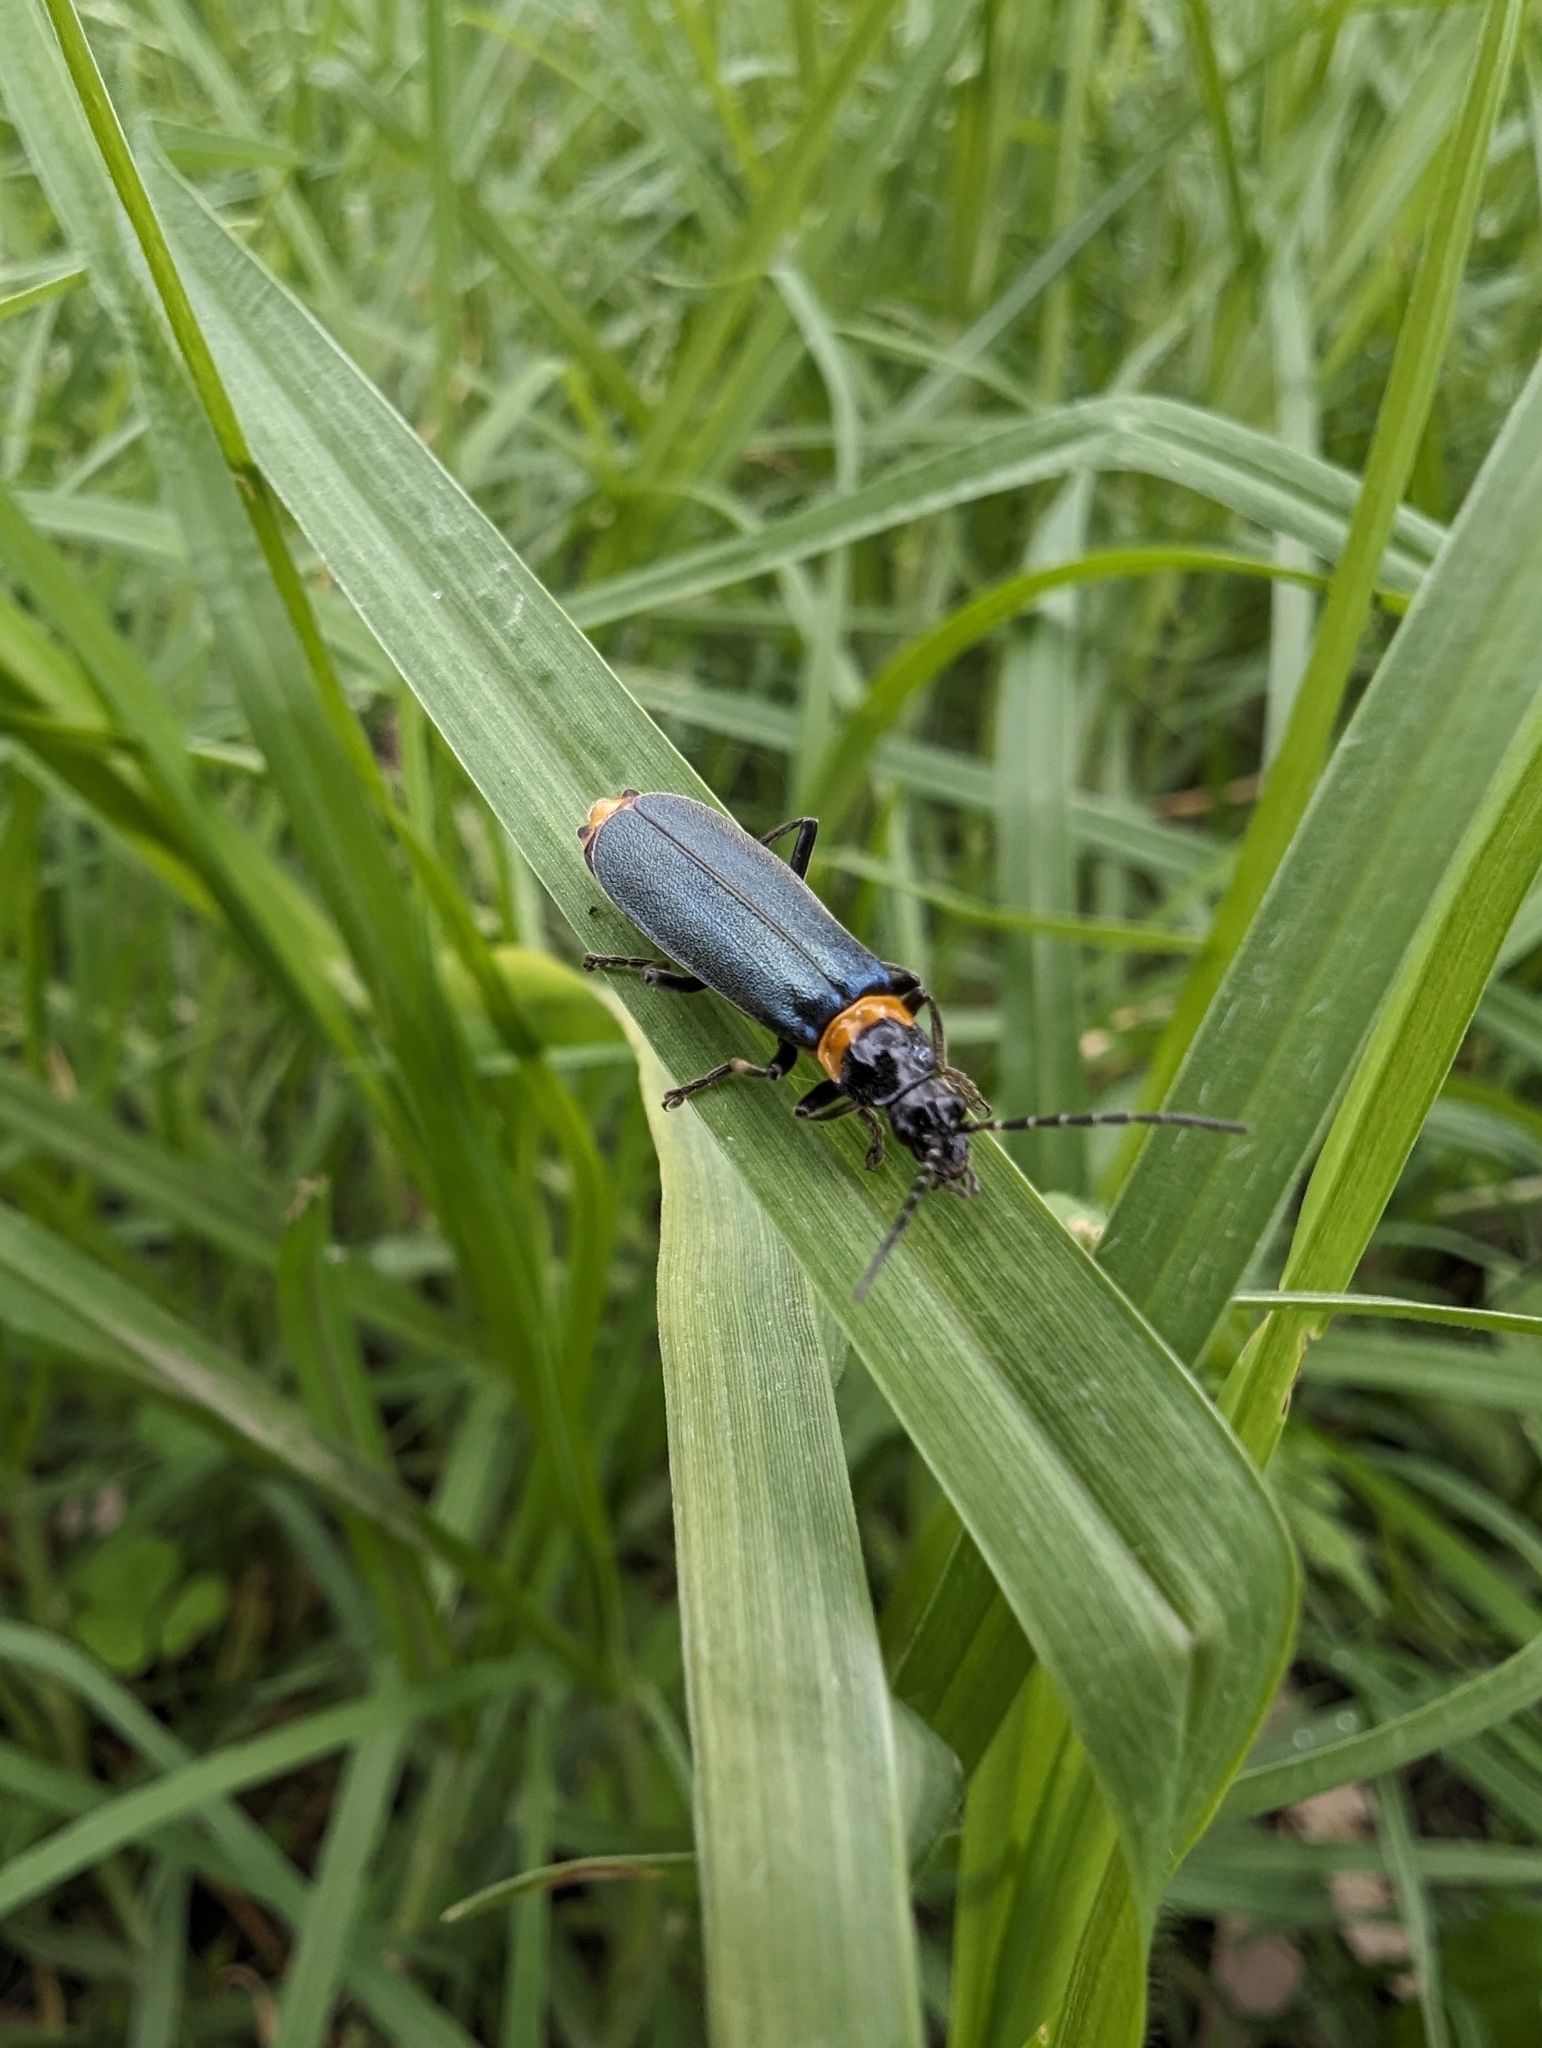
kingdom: Animalia
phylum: Arthropoda
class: Insecta
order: Coleoptera
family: Cantharidae
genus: Chauliognathus
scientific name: Chauliognathus
